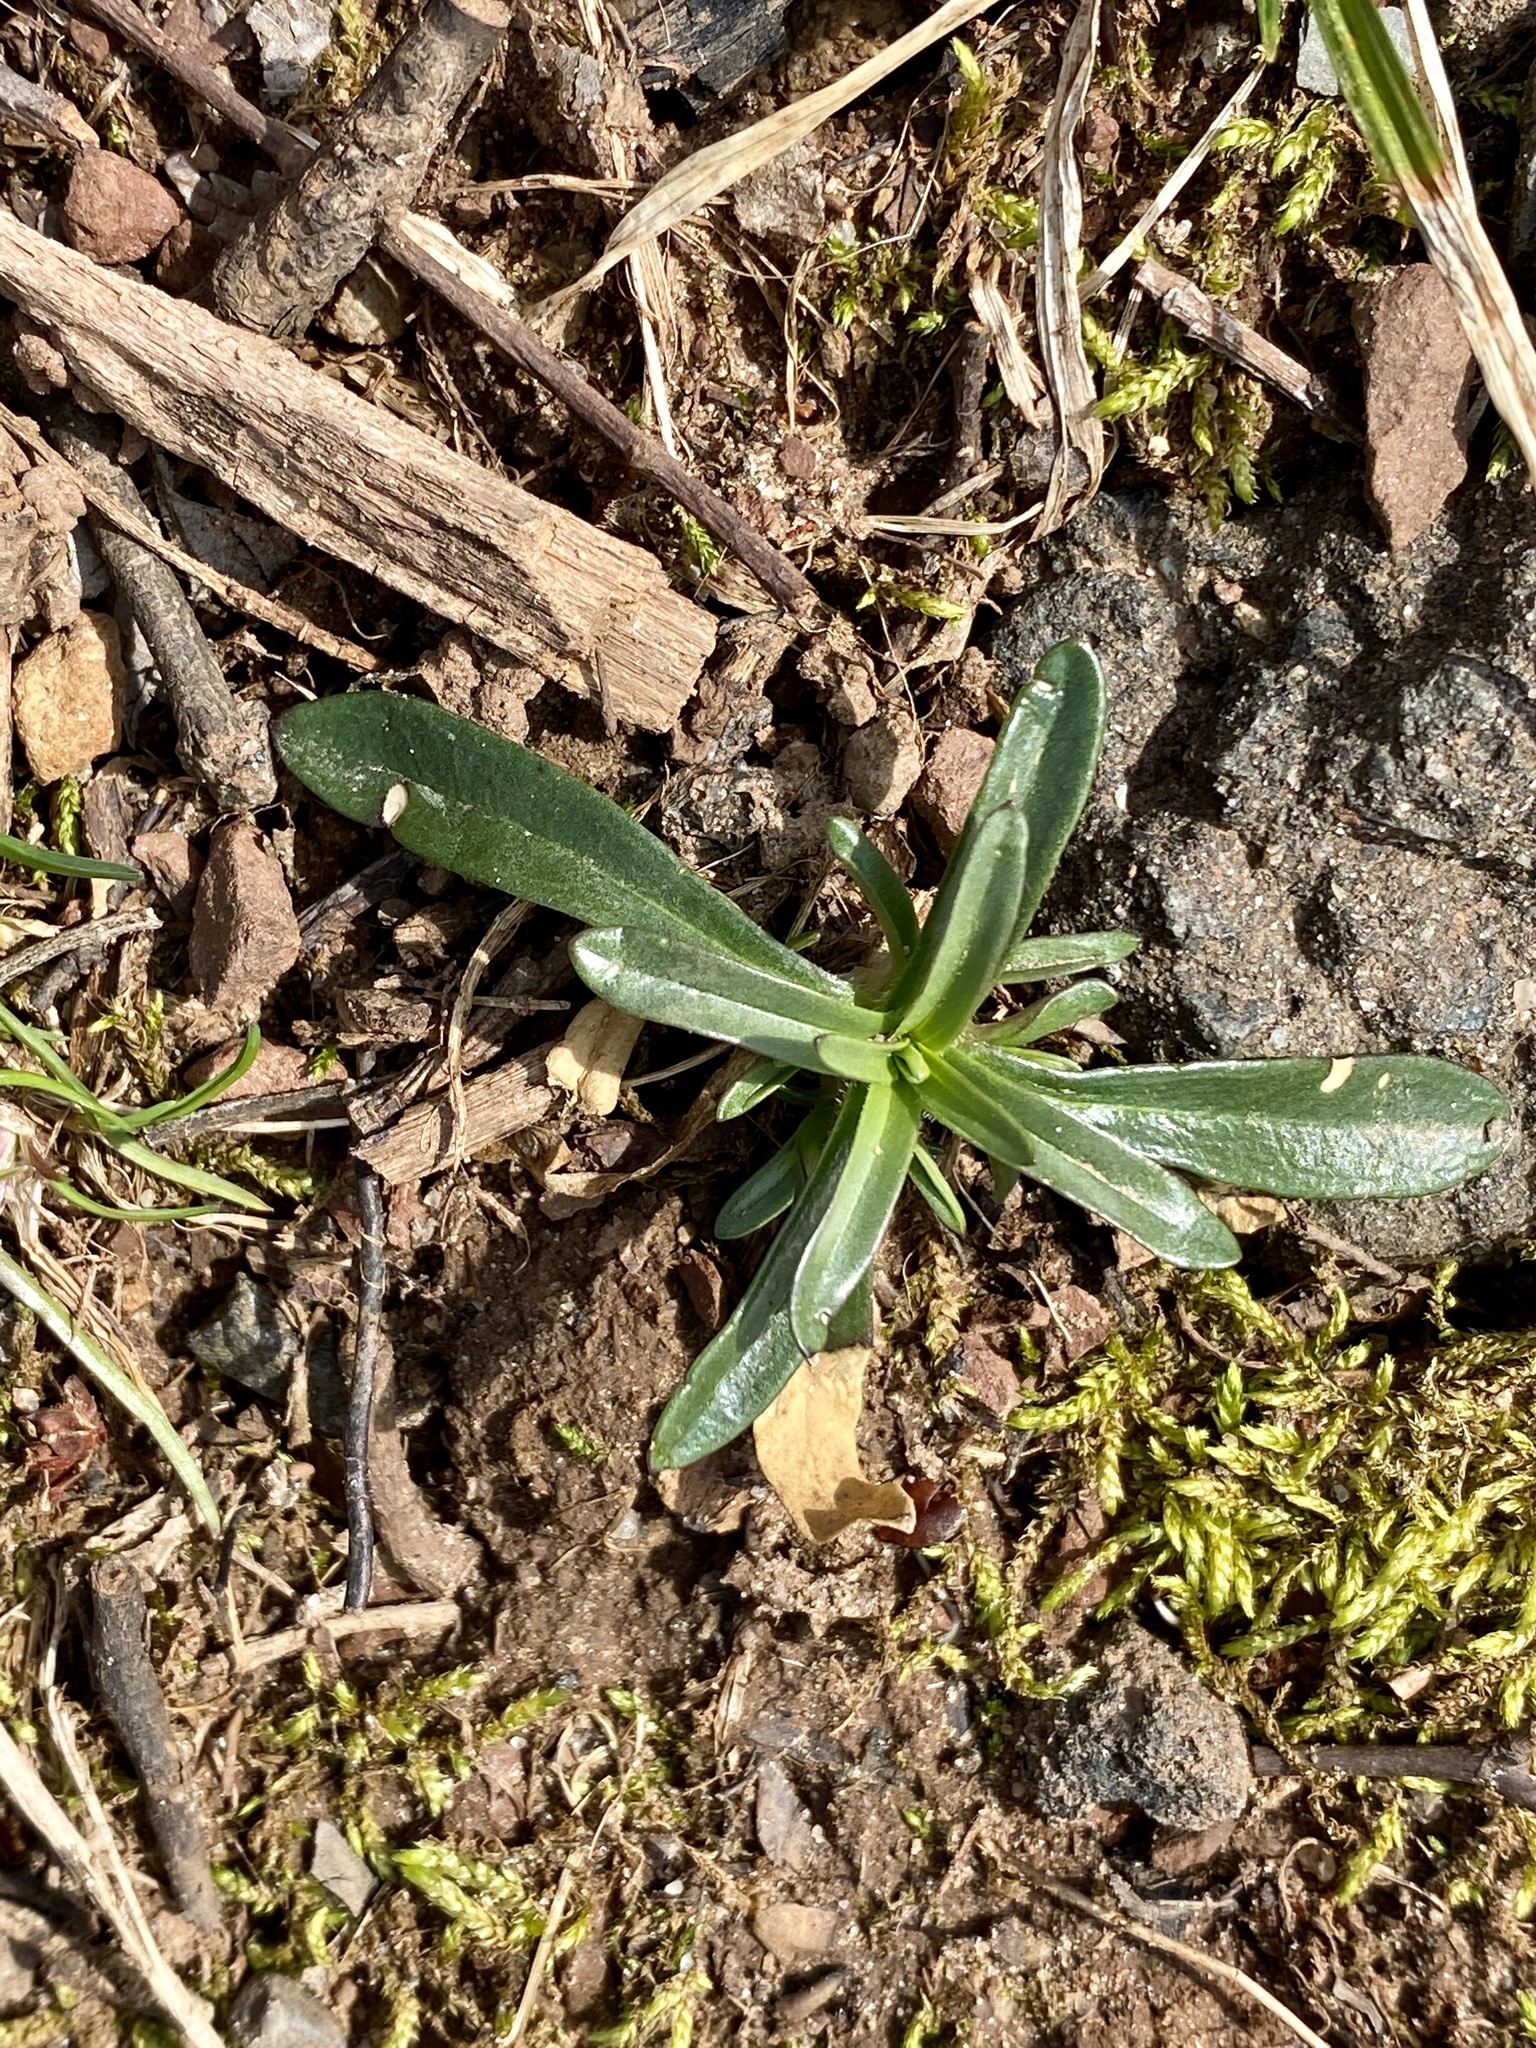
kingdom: Plantae
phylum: Tracheophyta
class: Magnoliopsida
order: Caryophyllales
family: Caryophyllaceae
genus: Dianthus
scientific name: Dianthus armeria
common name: Deptford pink
